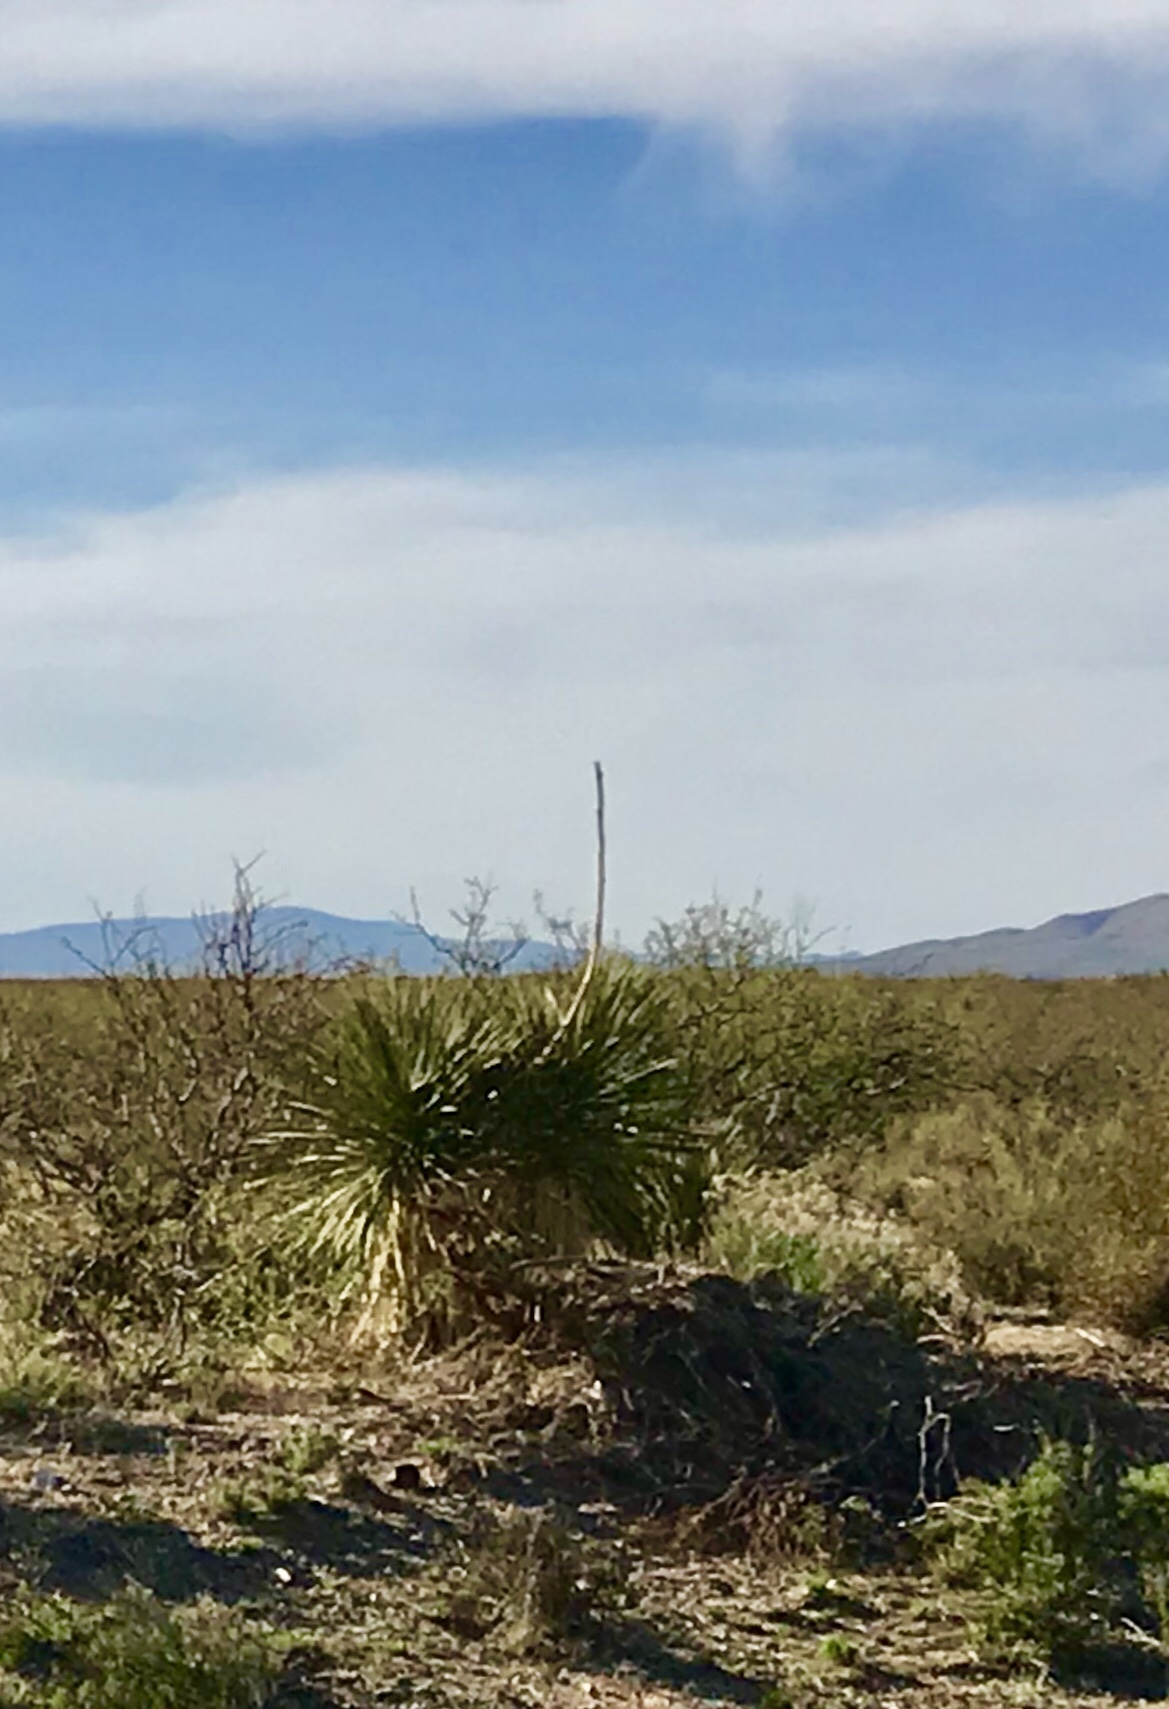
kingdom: Plantae
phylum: Tracheophyta
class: Liliopsida
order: Asparagales
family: Asparagaceae
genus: Yucca
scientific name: Yucca elata
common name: Palmella
